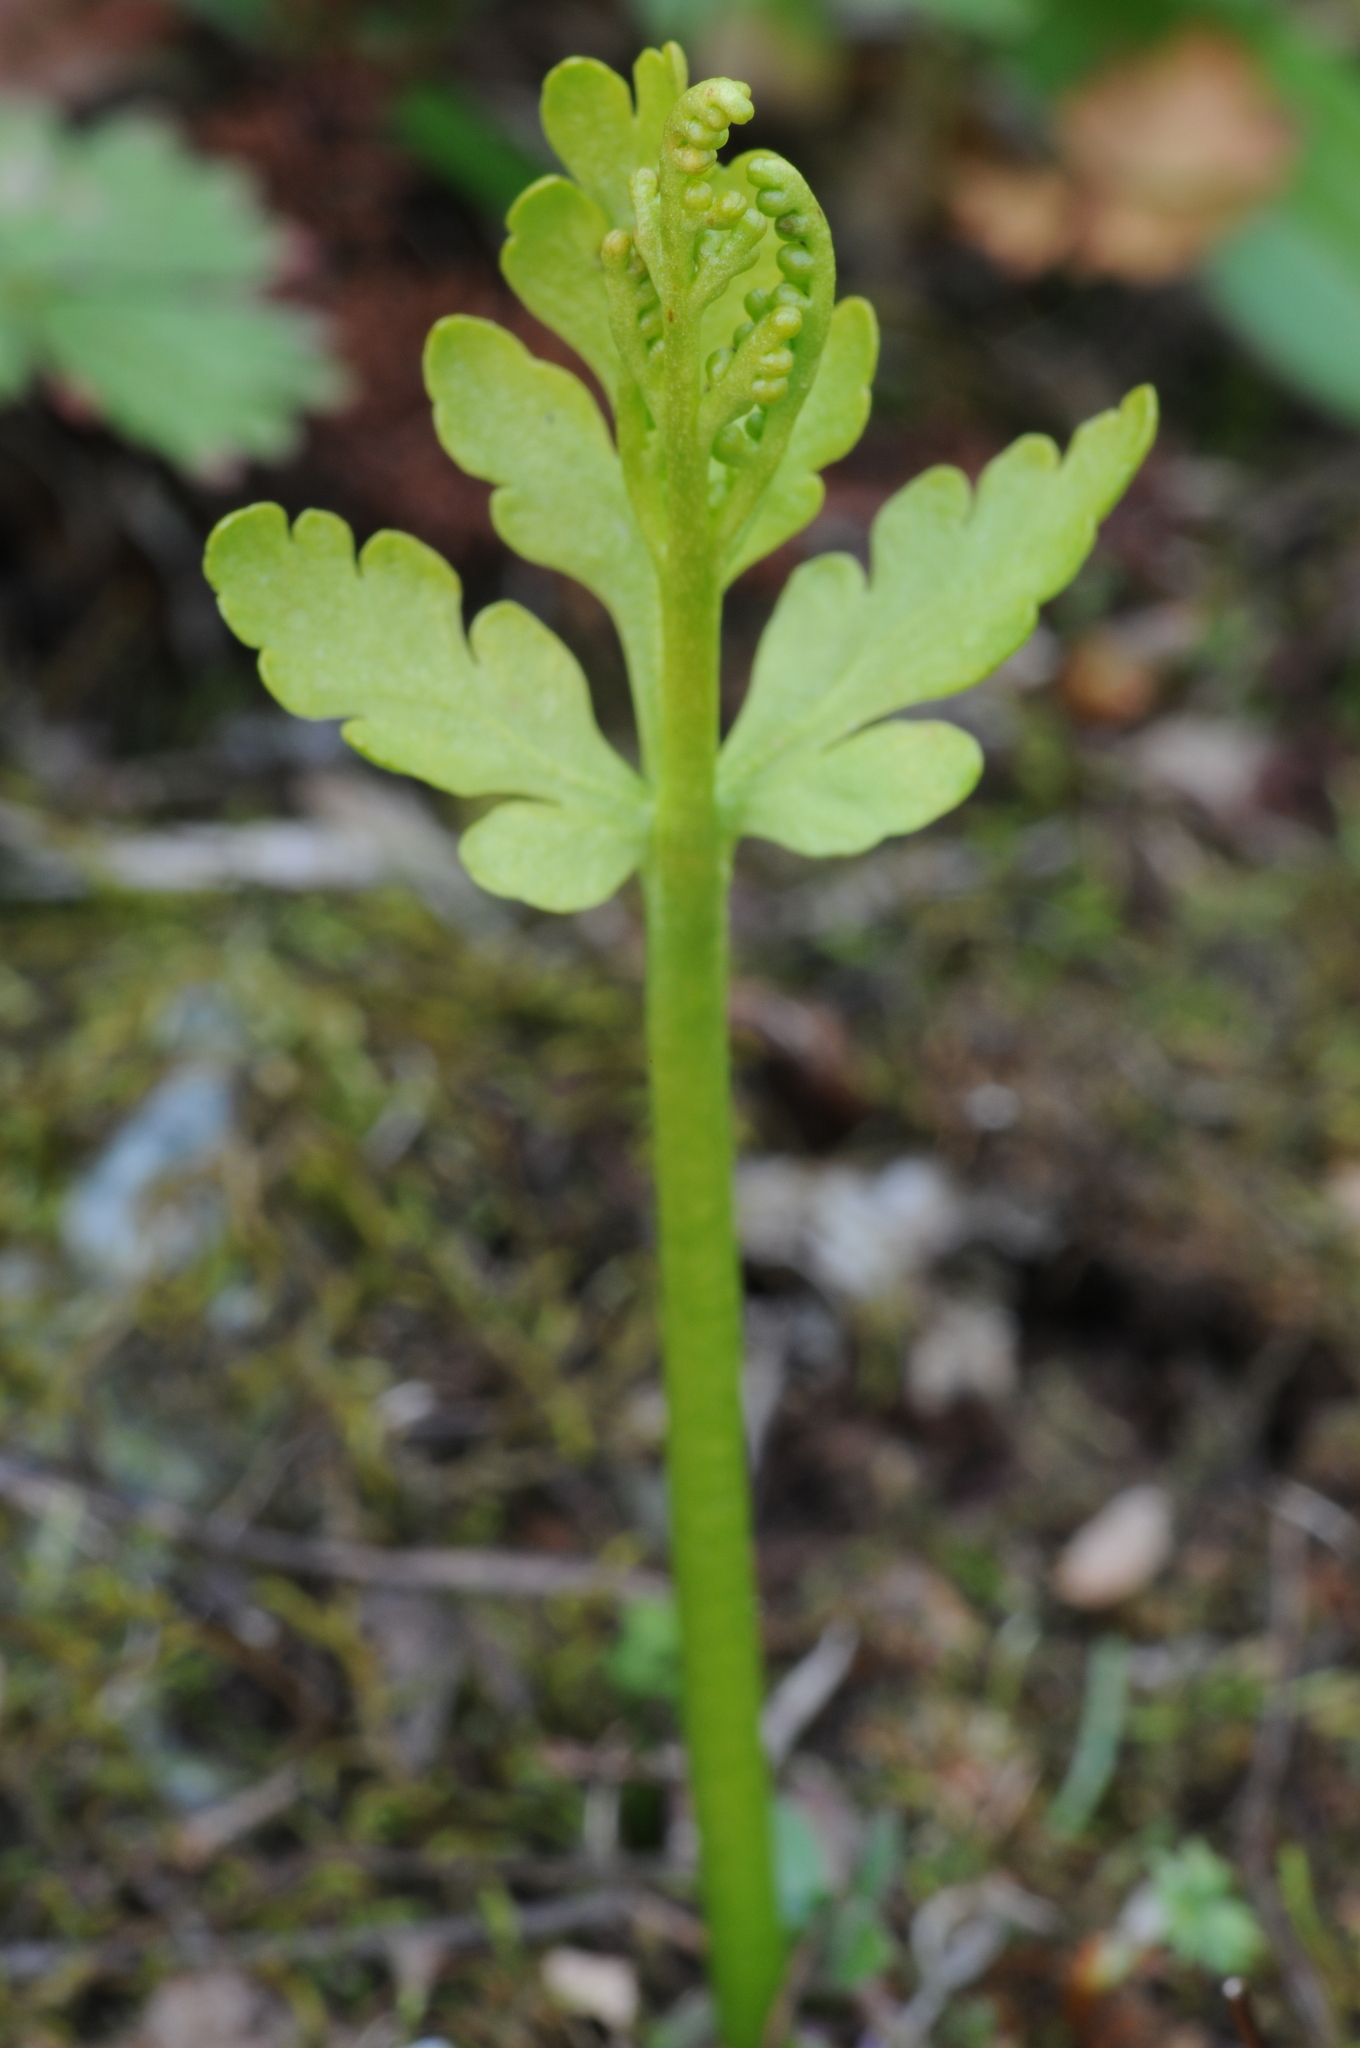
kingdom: Plantae
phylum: Tracheophyta
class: Polypodiopsida
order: Ophioglossales
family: Ophioglossaceae
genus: Botrychium
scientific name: Botrychium lanceolatum
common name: Lance-leaved moonwort
